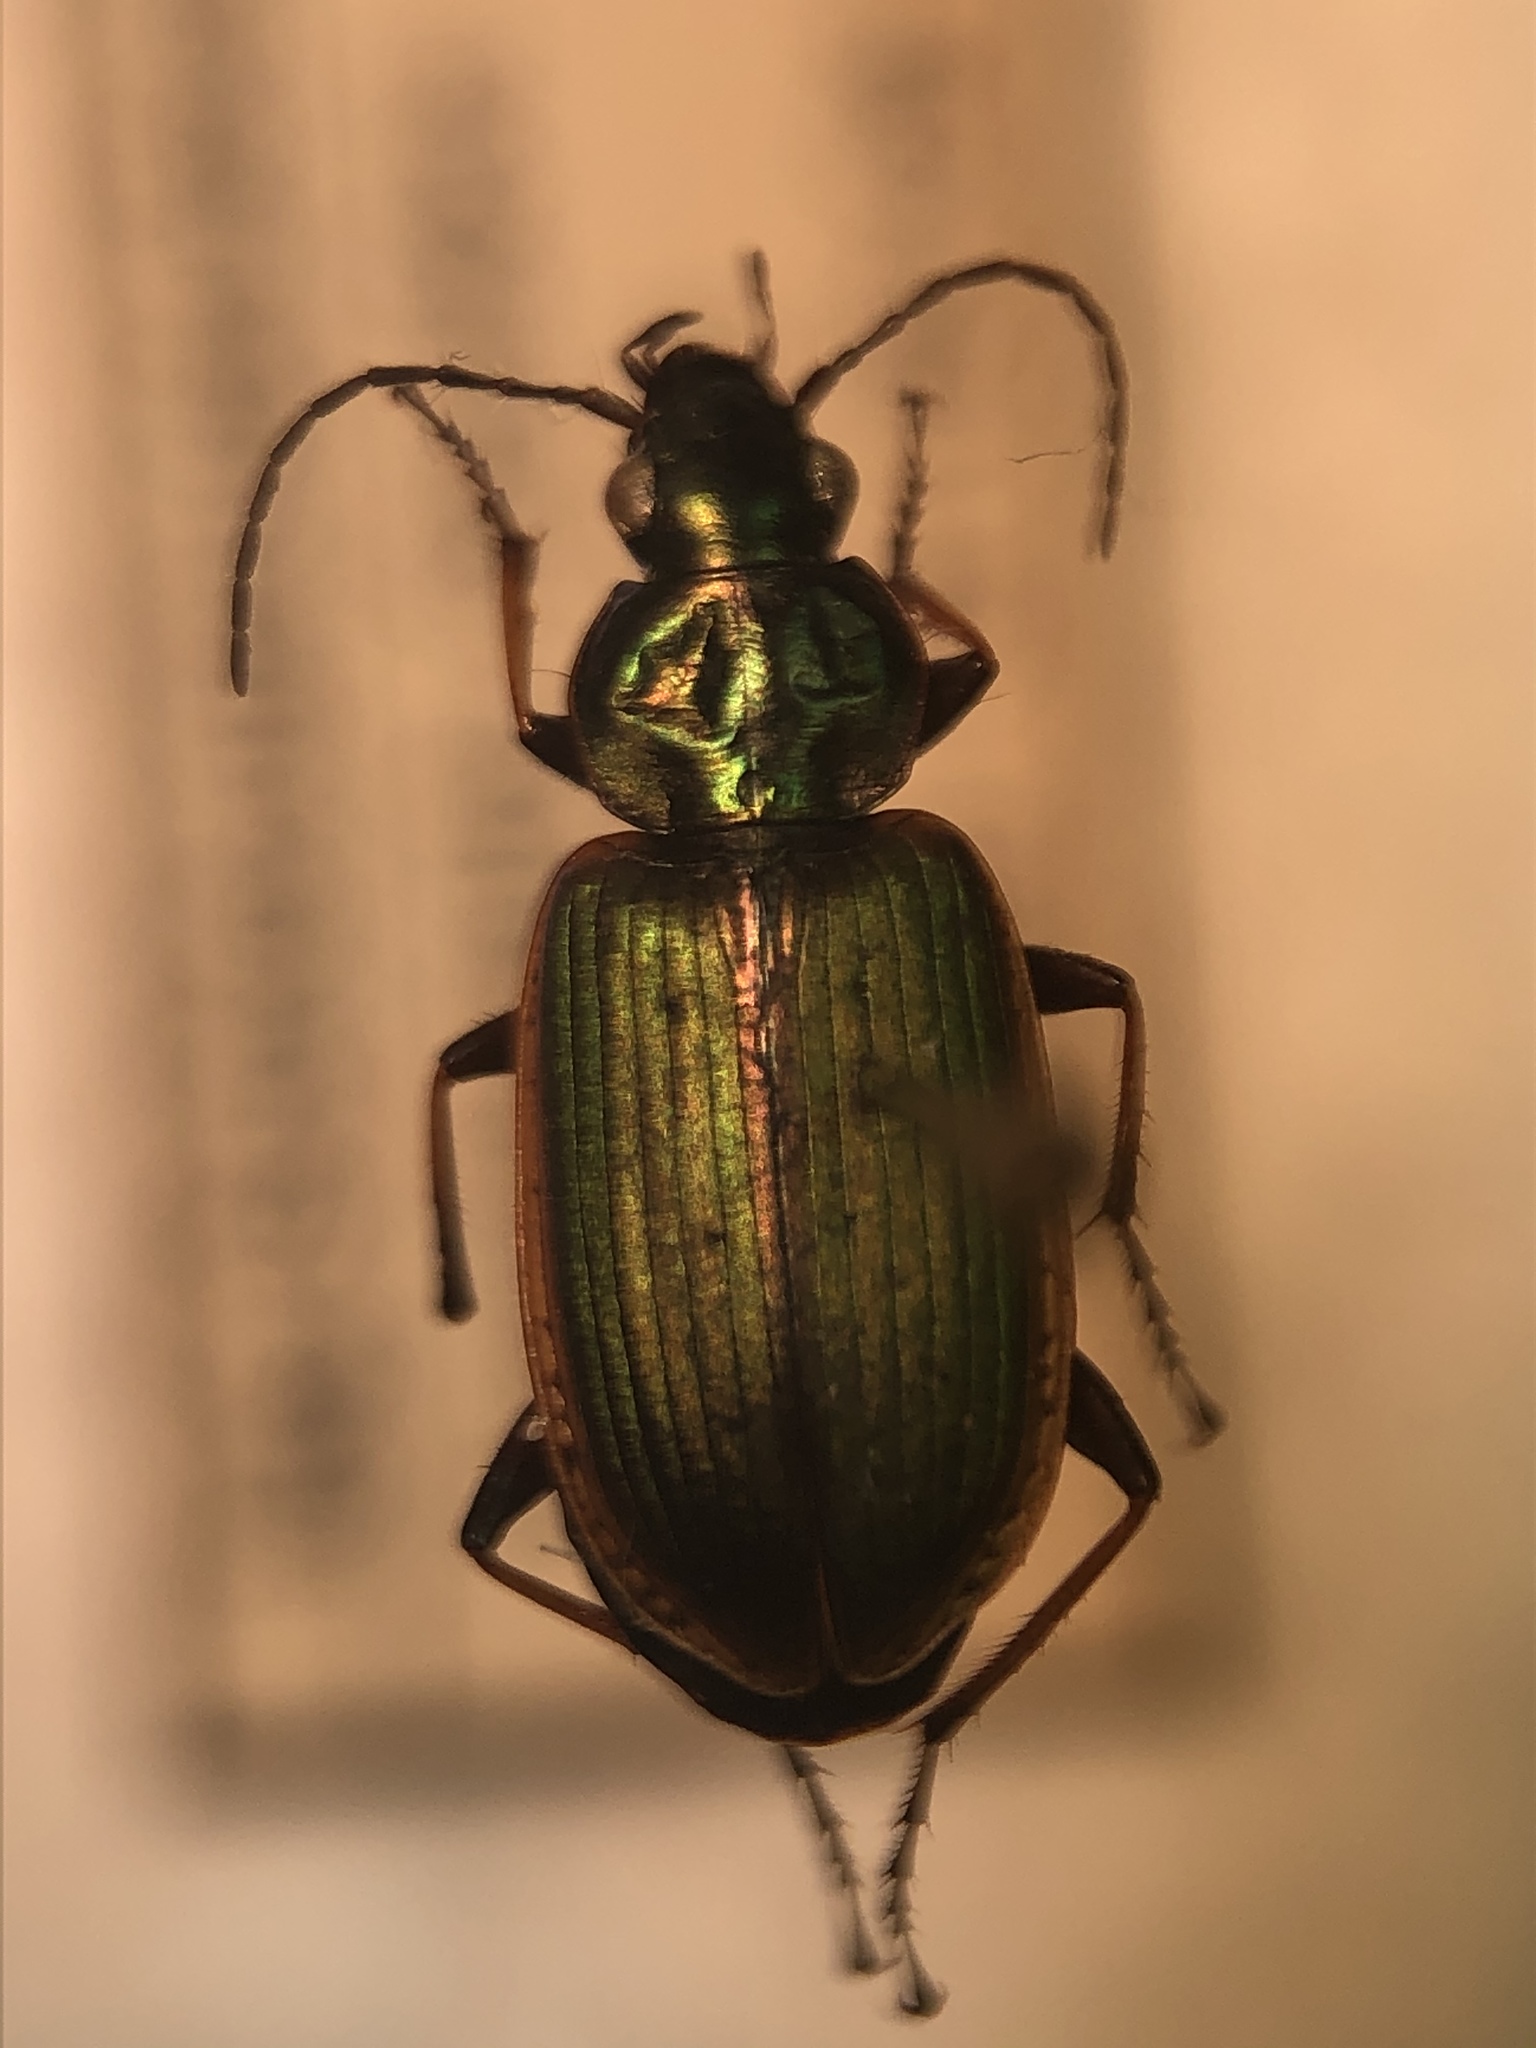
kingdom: Animalia
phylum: Arthropoda
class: Insecta
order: Coleoptera
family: Carabidae
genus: Agonum
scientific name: Agonum marginatum
